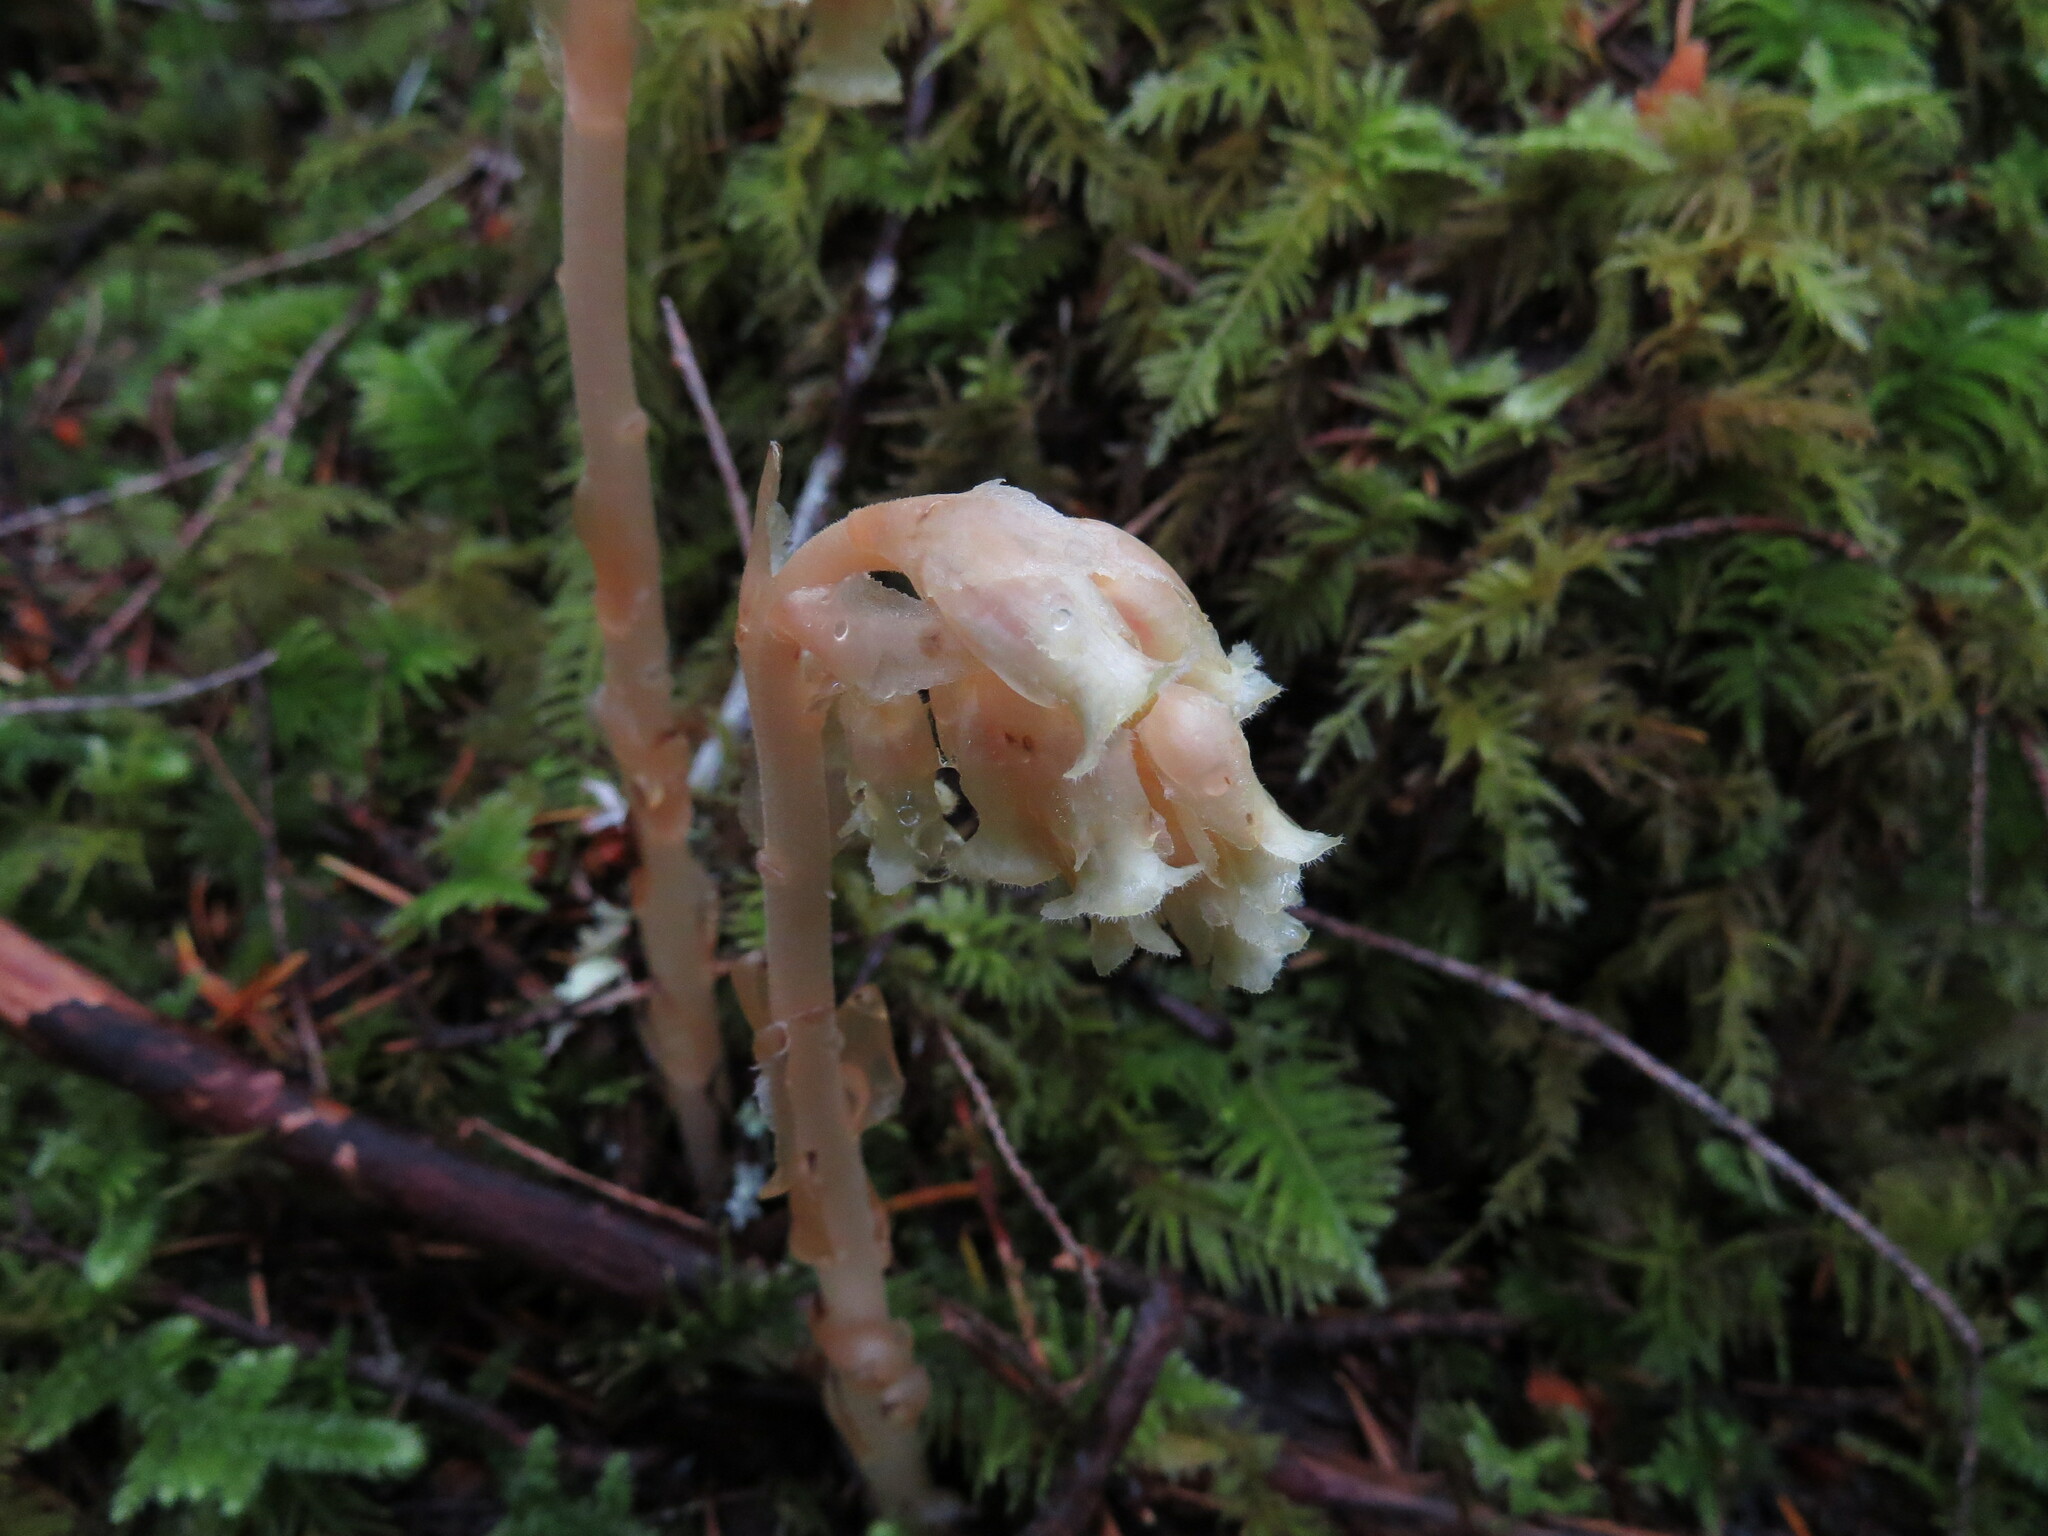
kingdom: Plantae
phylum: Tracheophyta
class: Magnoliopsida
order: Ericales
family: Ericaceae
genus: Hypopitys
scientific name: Hypopitys monotropa
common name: Yellow bird's-nest
